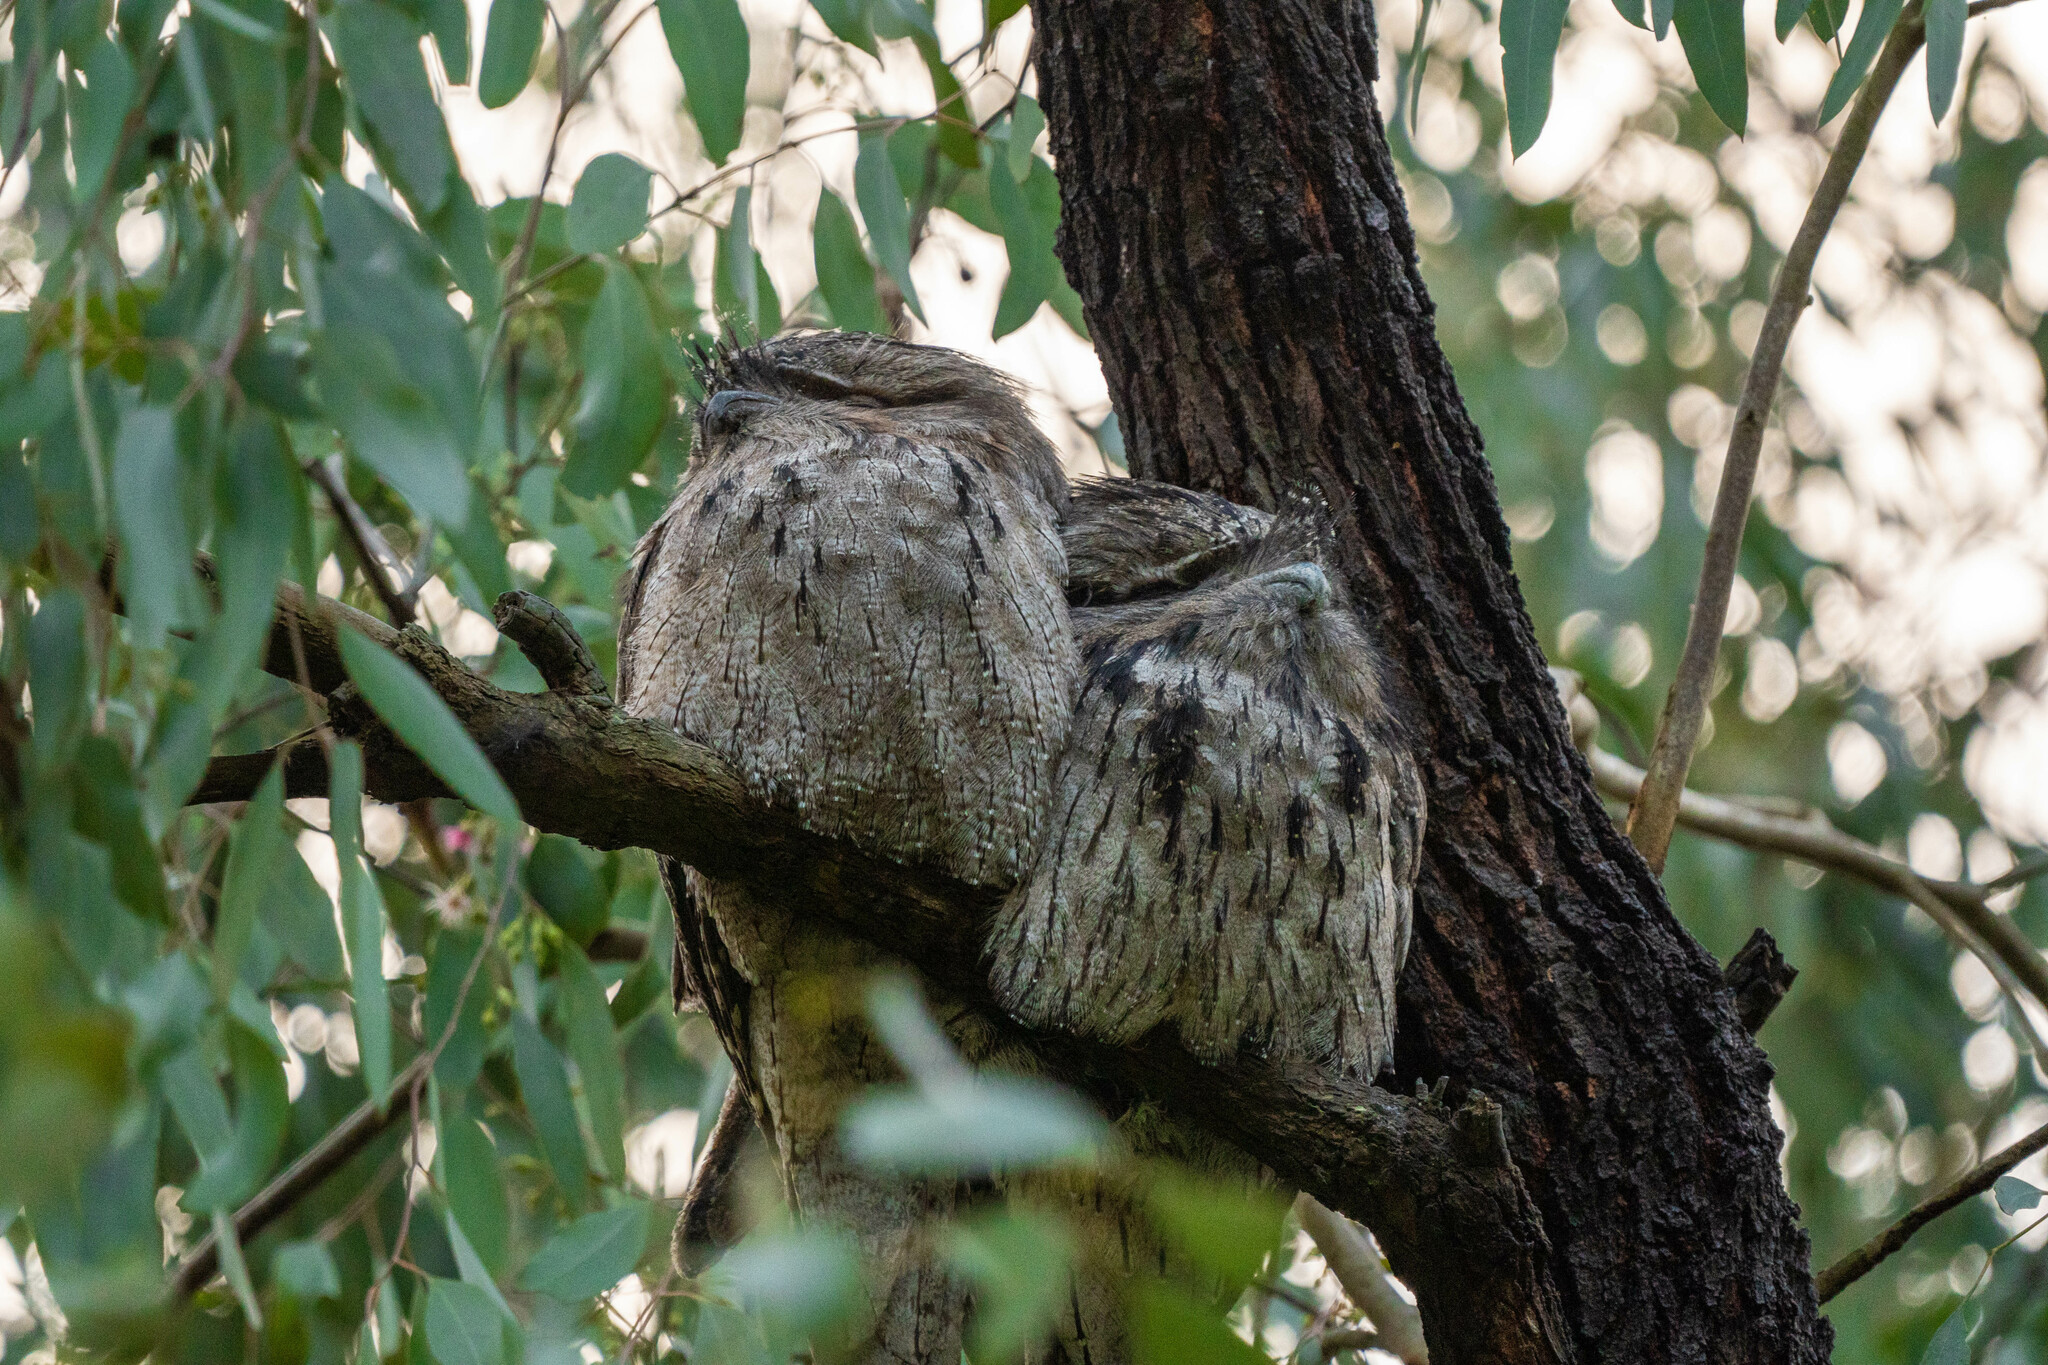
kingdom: Animalia
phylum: Chordata
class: Aves
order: Caprimulgiformes
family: Podargidae
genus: Podargus
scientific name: Podargus strigoides
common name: Tawny frogmouth
